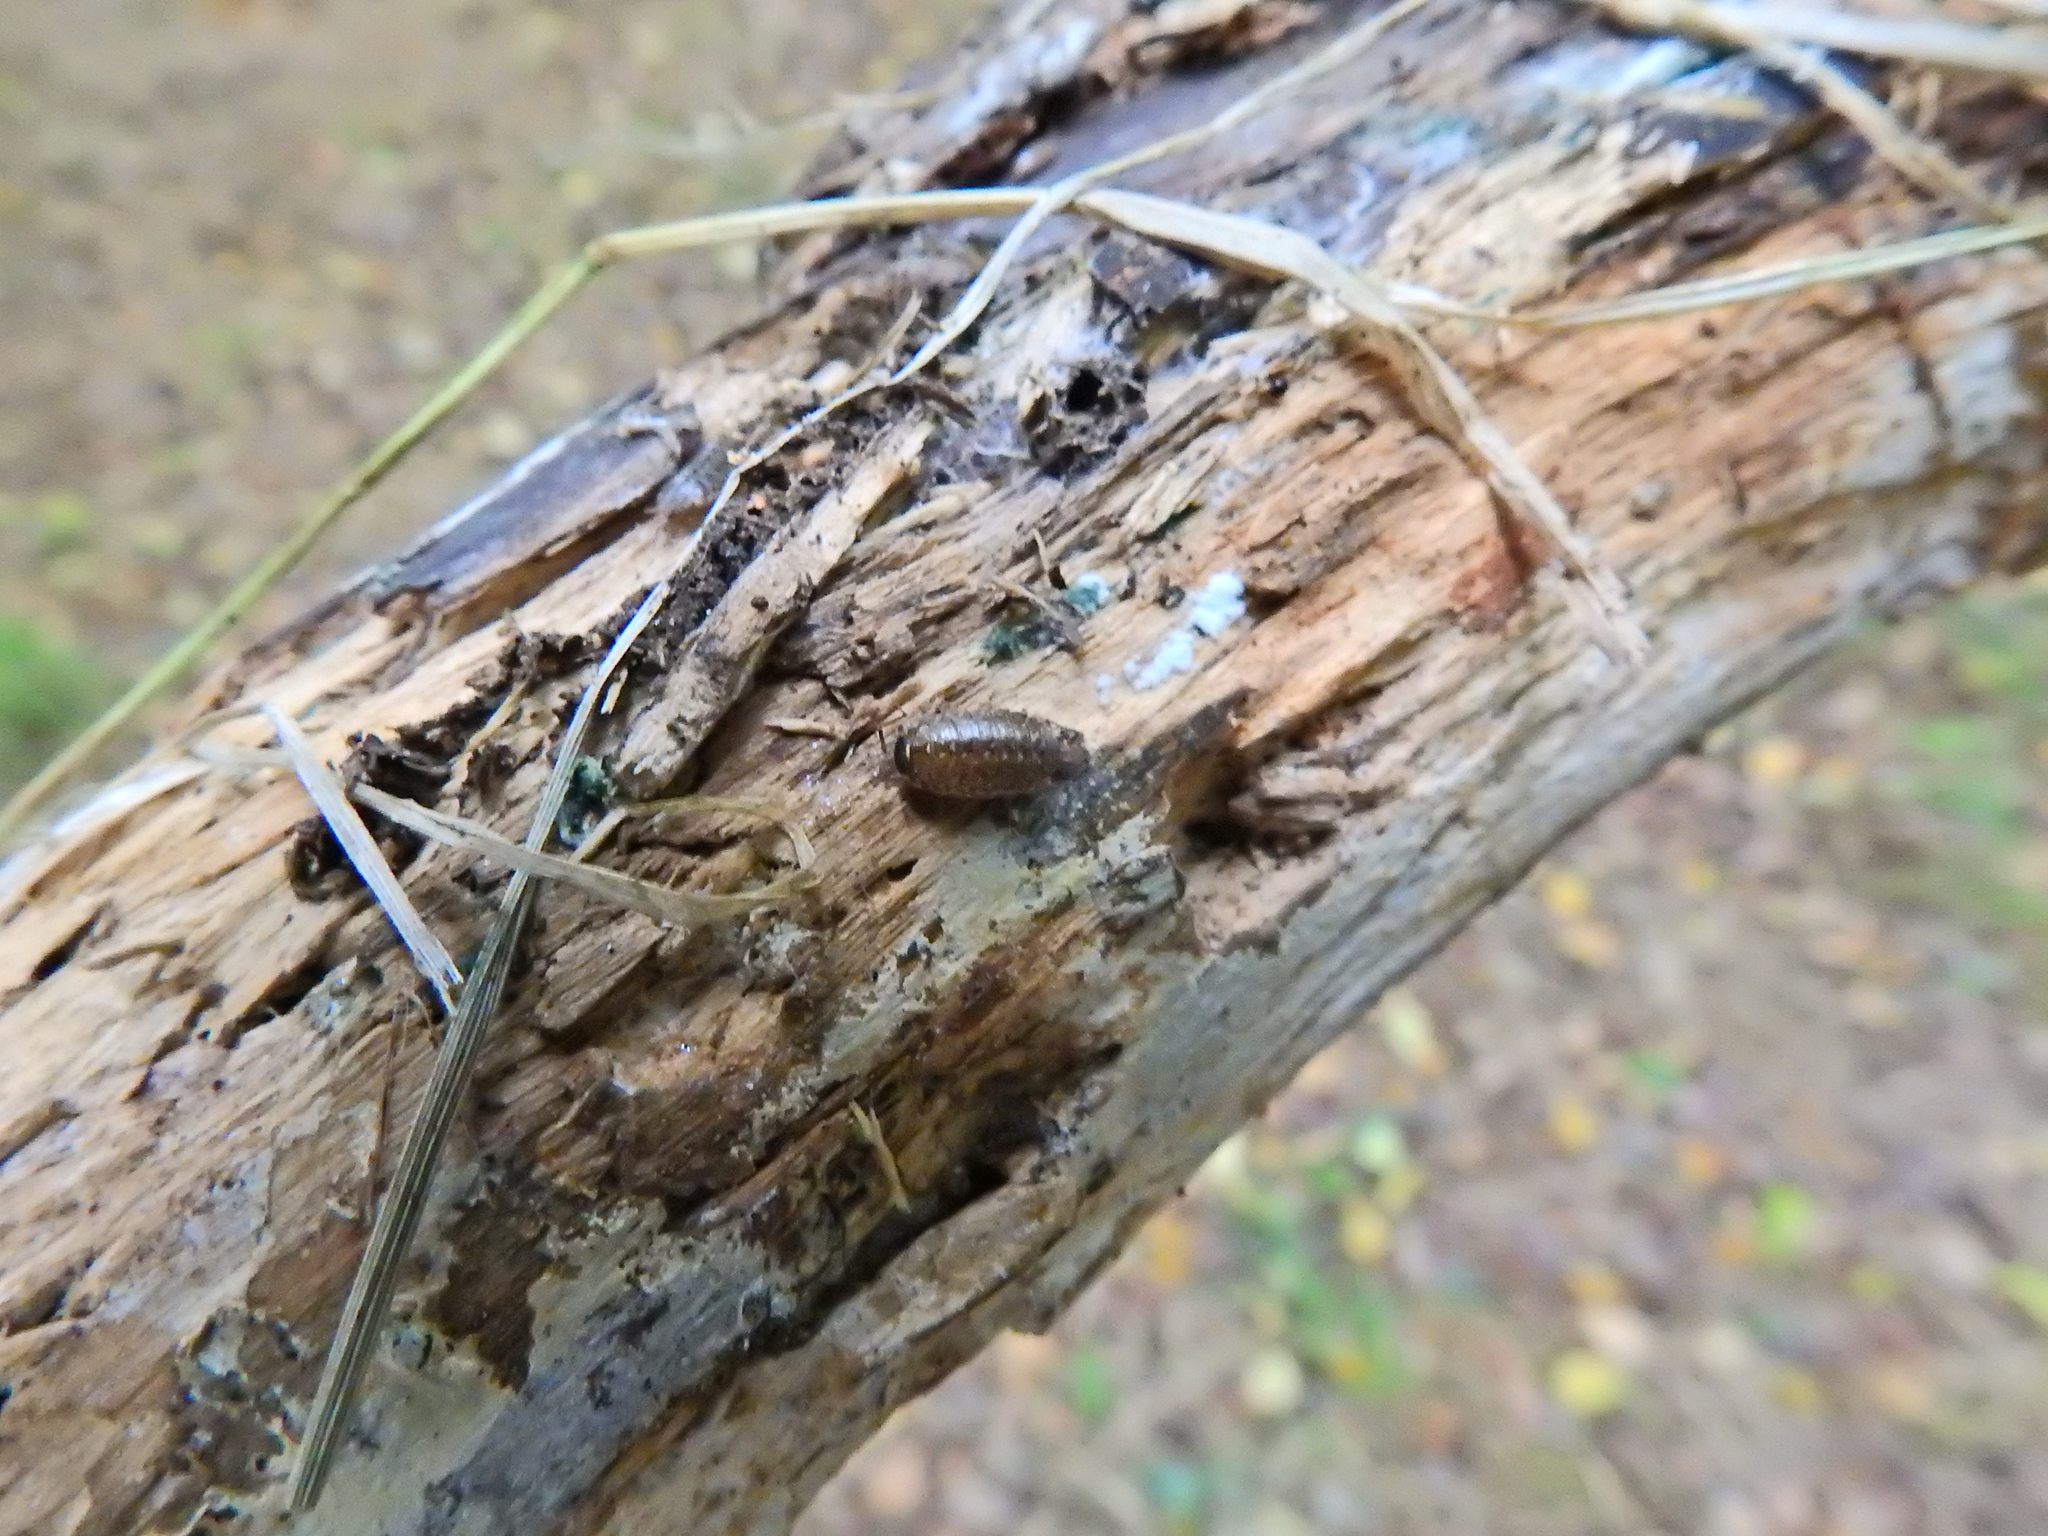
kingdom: Animalia
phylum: Arthropoda
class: Malacostraca
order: Isopoda
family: Philosciidae
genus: Philoscia
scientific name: Philoscia muscorum
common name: Common striped woodlouse
